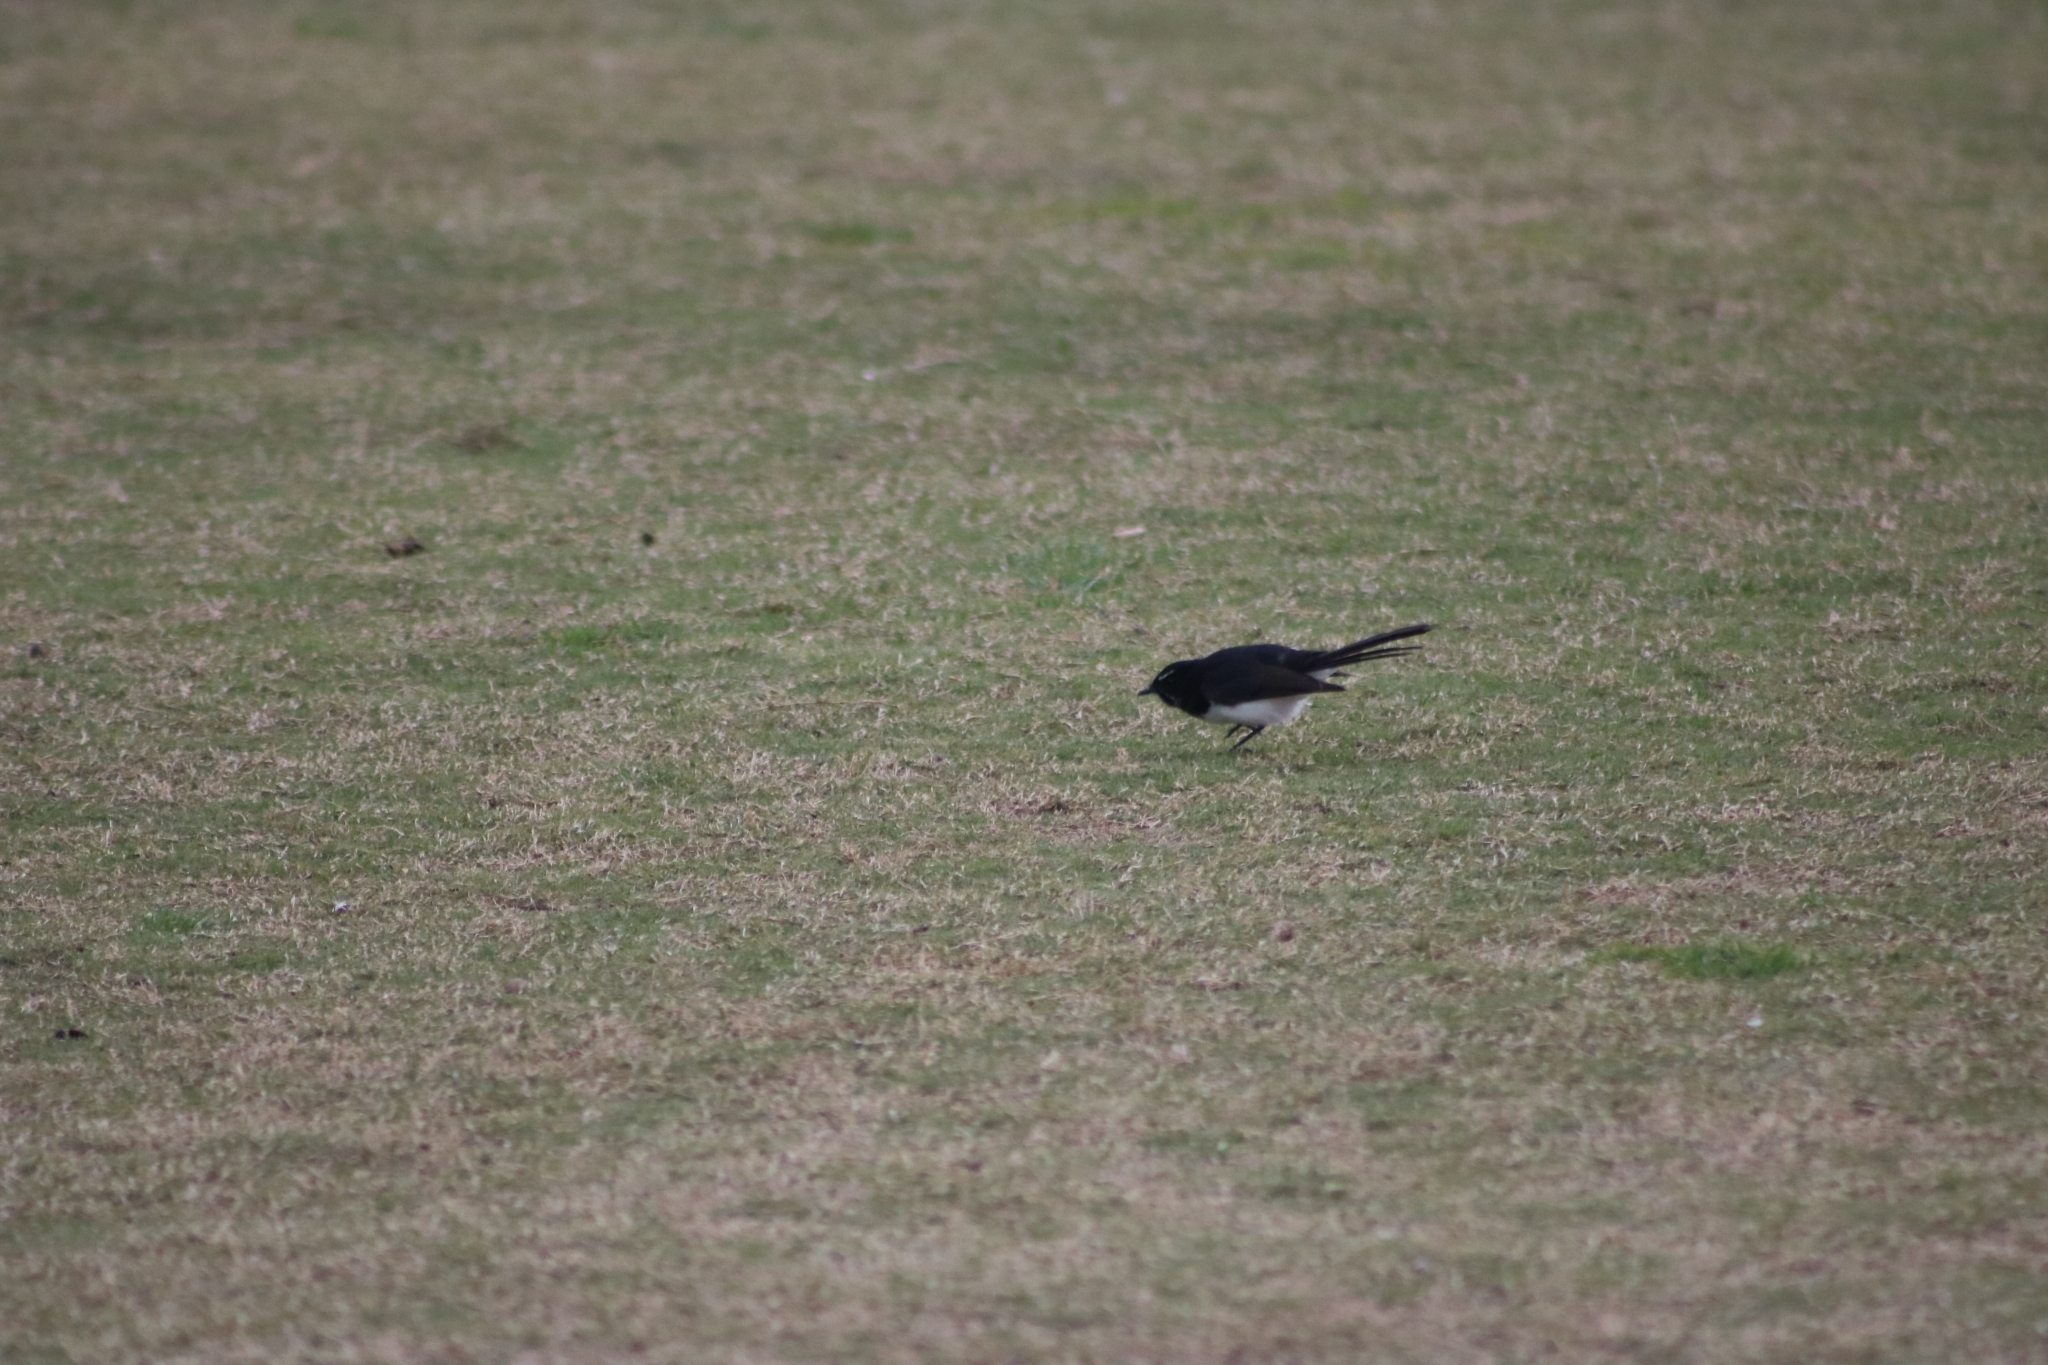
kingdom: Animalia
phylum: Chordata
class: Aves
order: Passeriformes
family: Rhipiduridae
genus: Rhipidura
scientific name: Rhipidura leucophrys
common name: Willie wagtail
